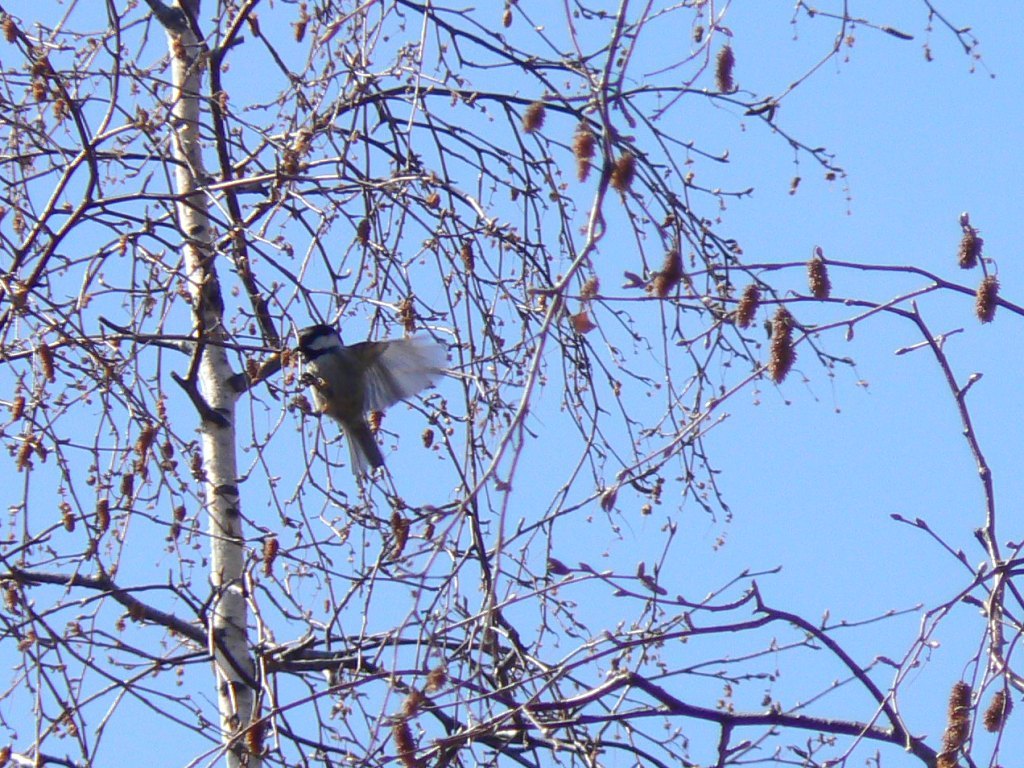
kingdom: Animalia
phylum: Chordata
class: Aves
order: Passeriformes
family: Paridae
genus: Periparus
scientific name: Periparus ater
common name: Coal tit
